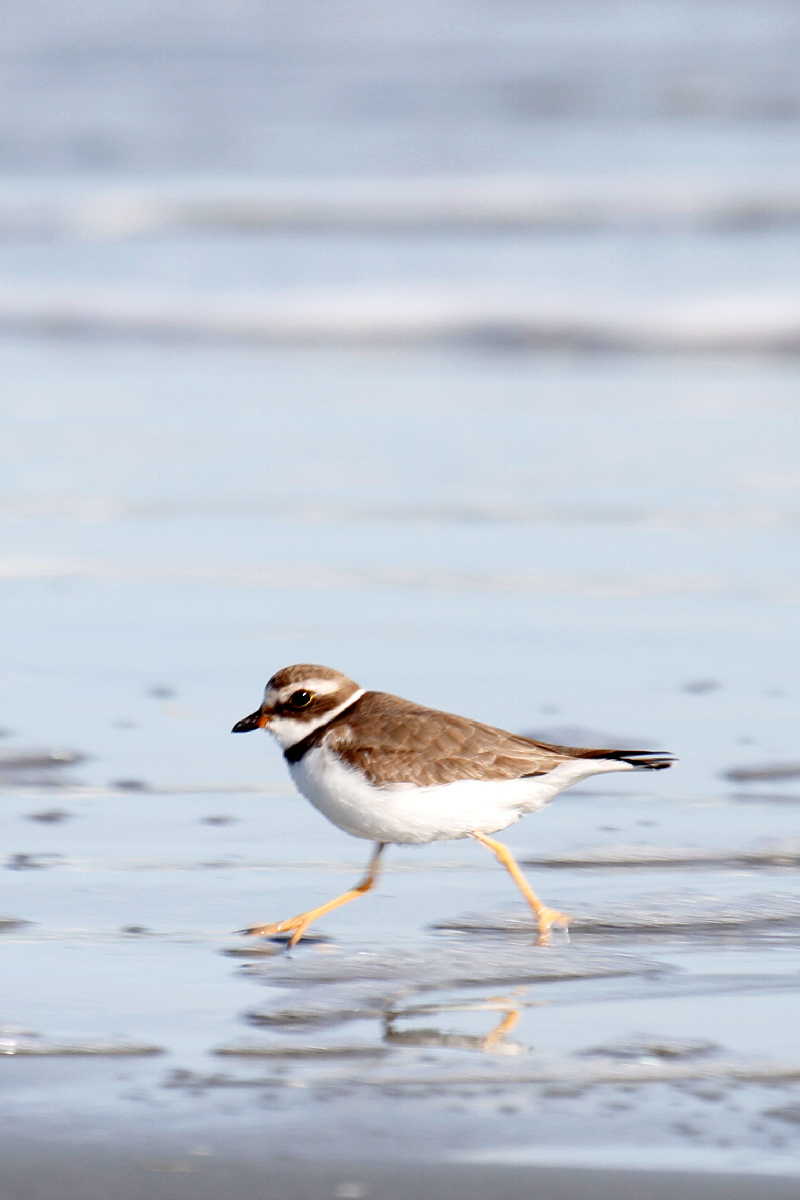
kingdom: Animalia
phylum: Chordata
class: Aves
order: Charadriiformes
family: Charadriidae
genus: Charadrius
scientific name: Charadrius semipalmatus
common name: Semipalmated plover
